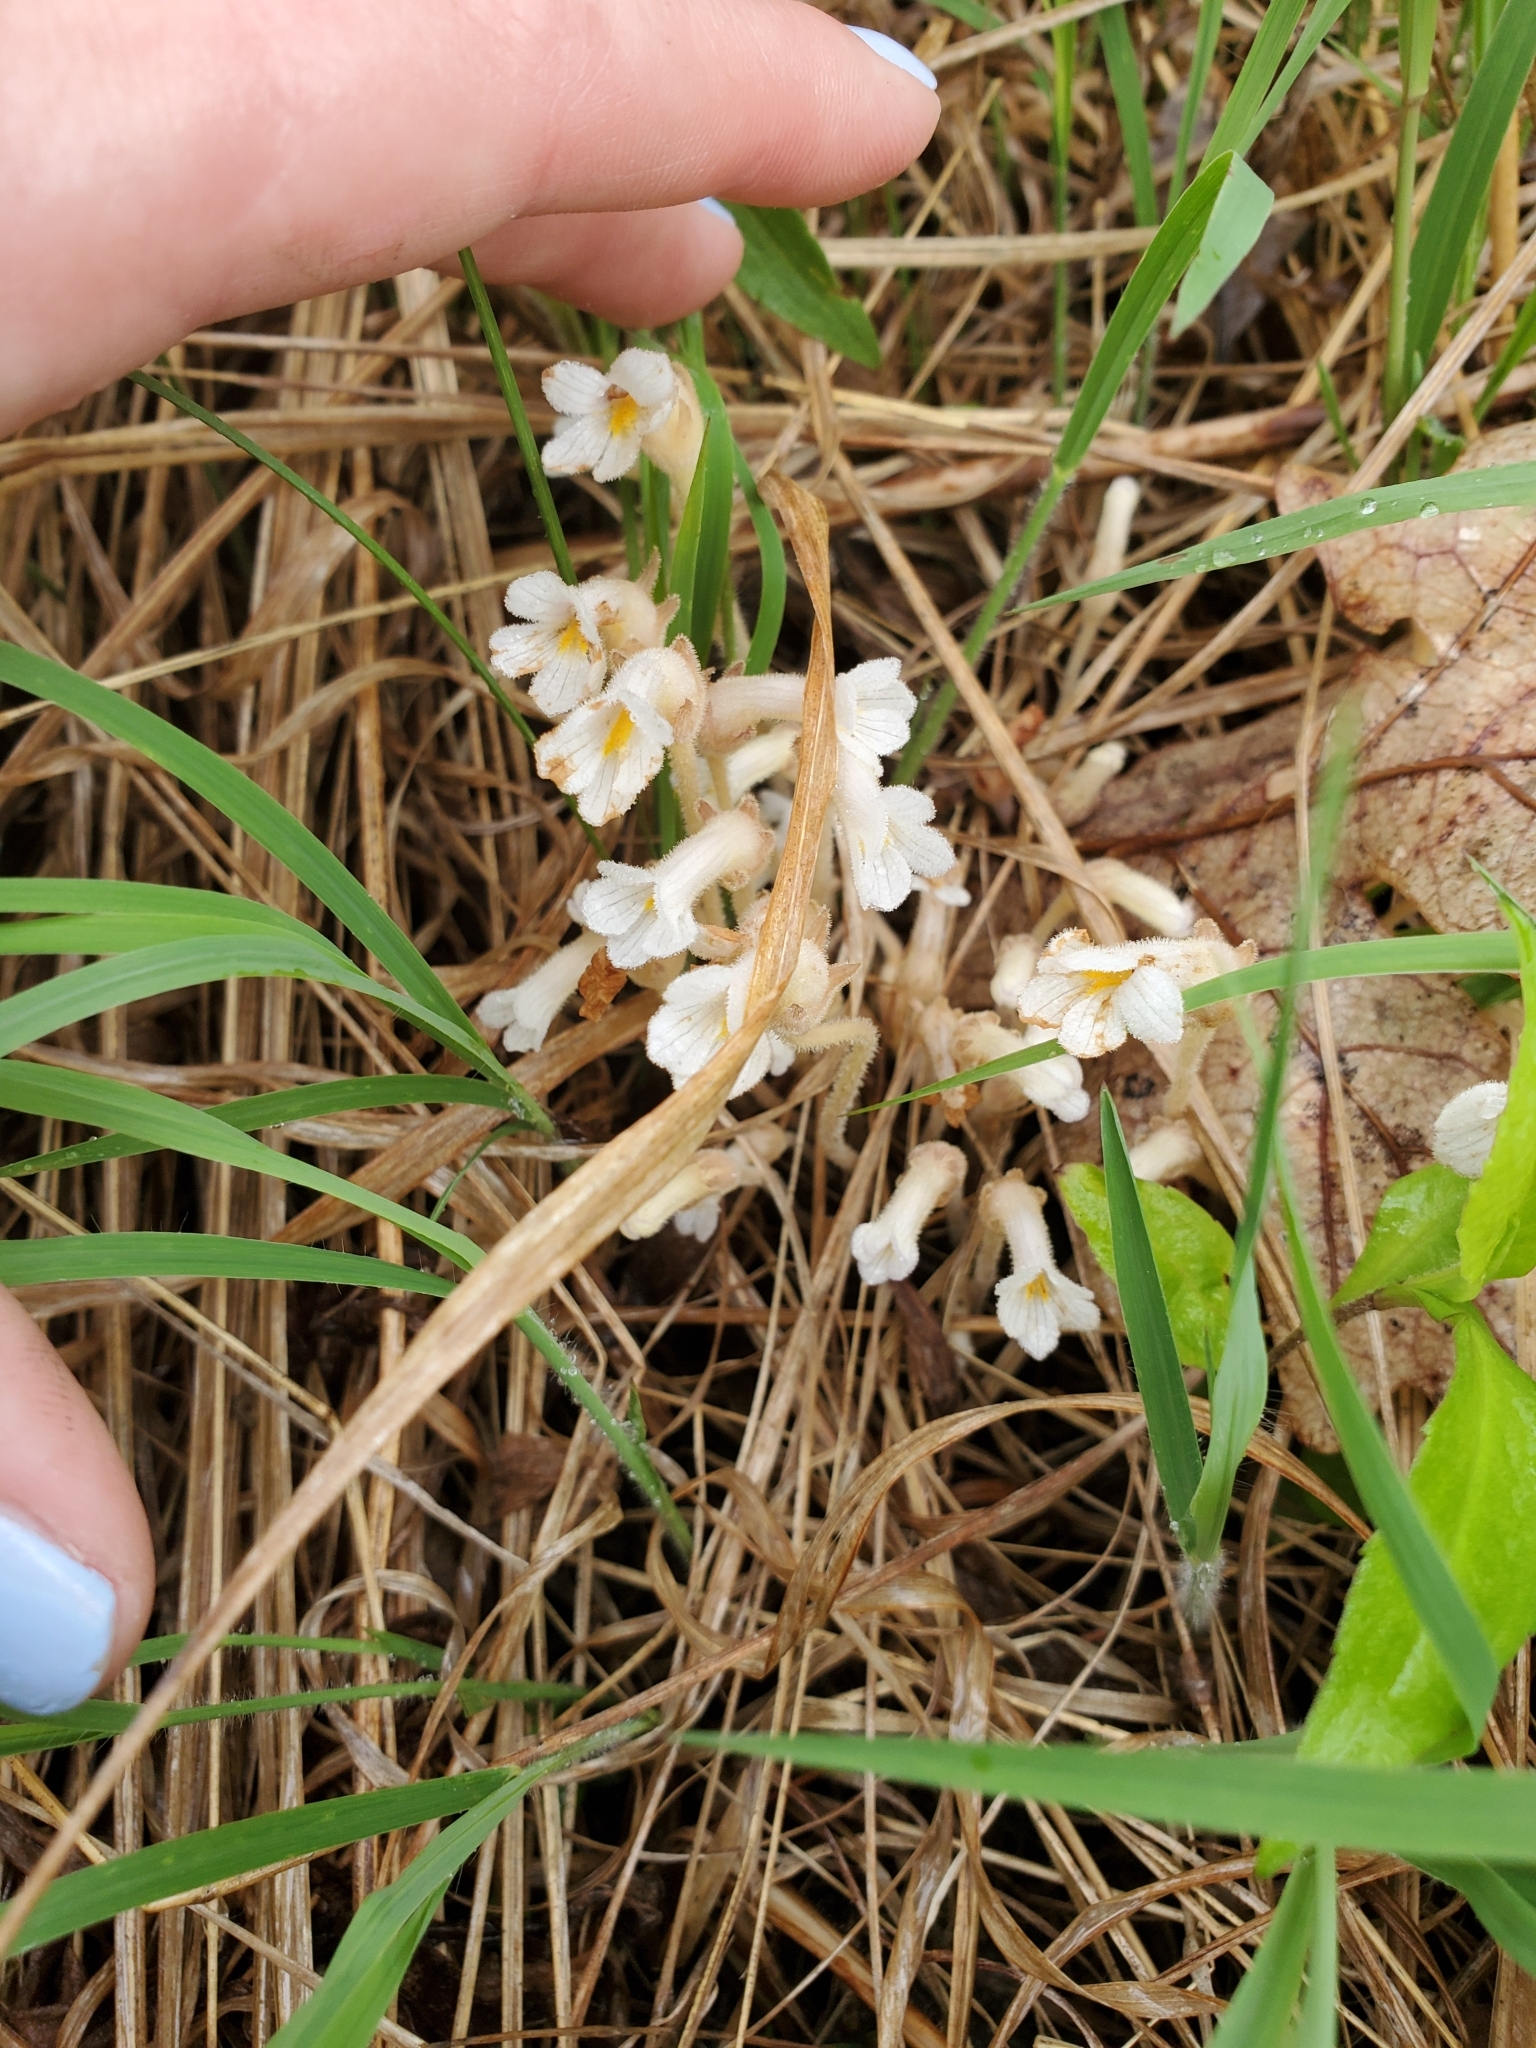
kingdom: Plantae
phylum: Tracheophyta
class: Magnoliopsida
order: Lamiales
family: Orobanchaceae
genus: Aphyllon
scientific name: Aphyllon uniflorum
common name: One-flowered broomrape
